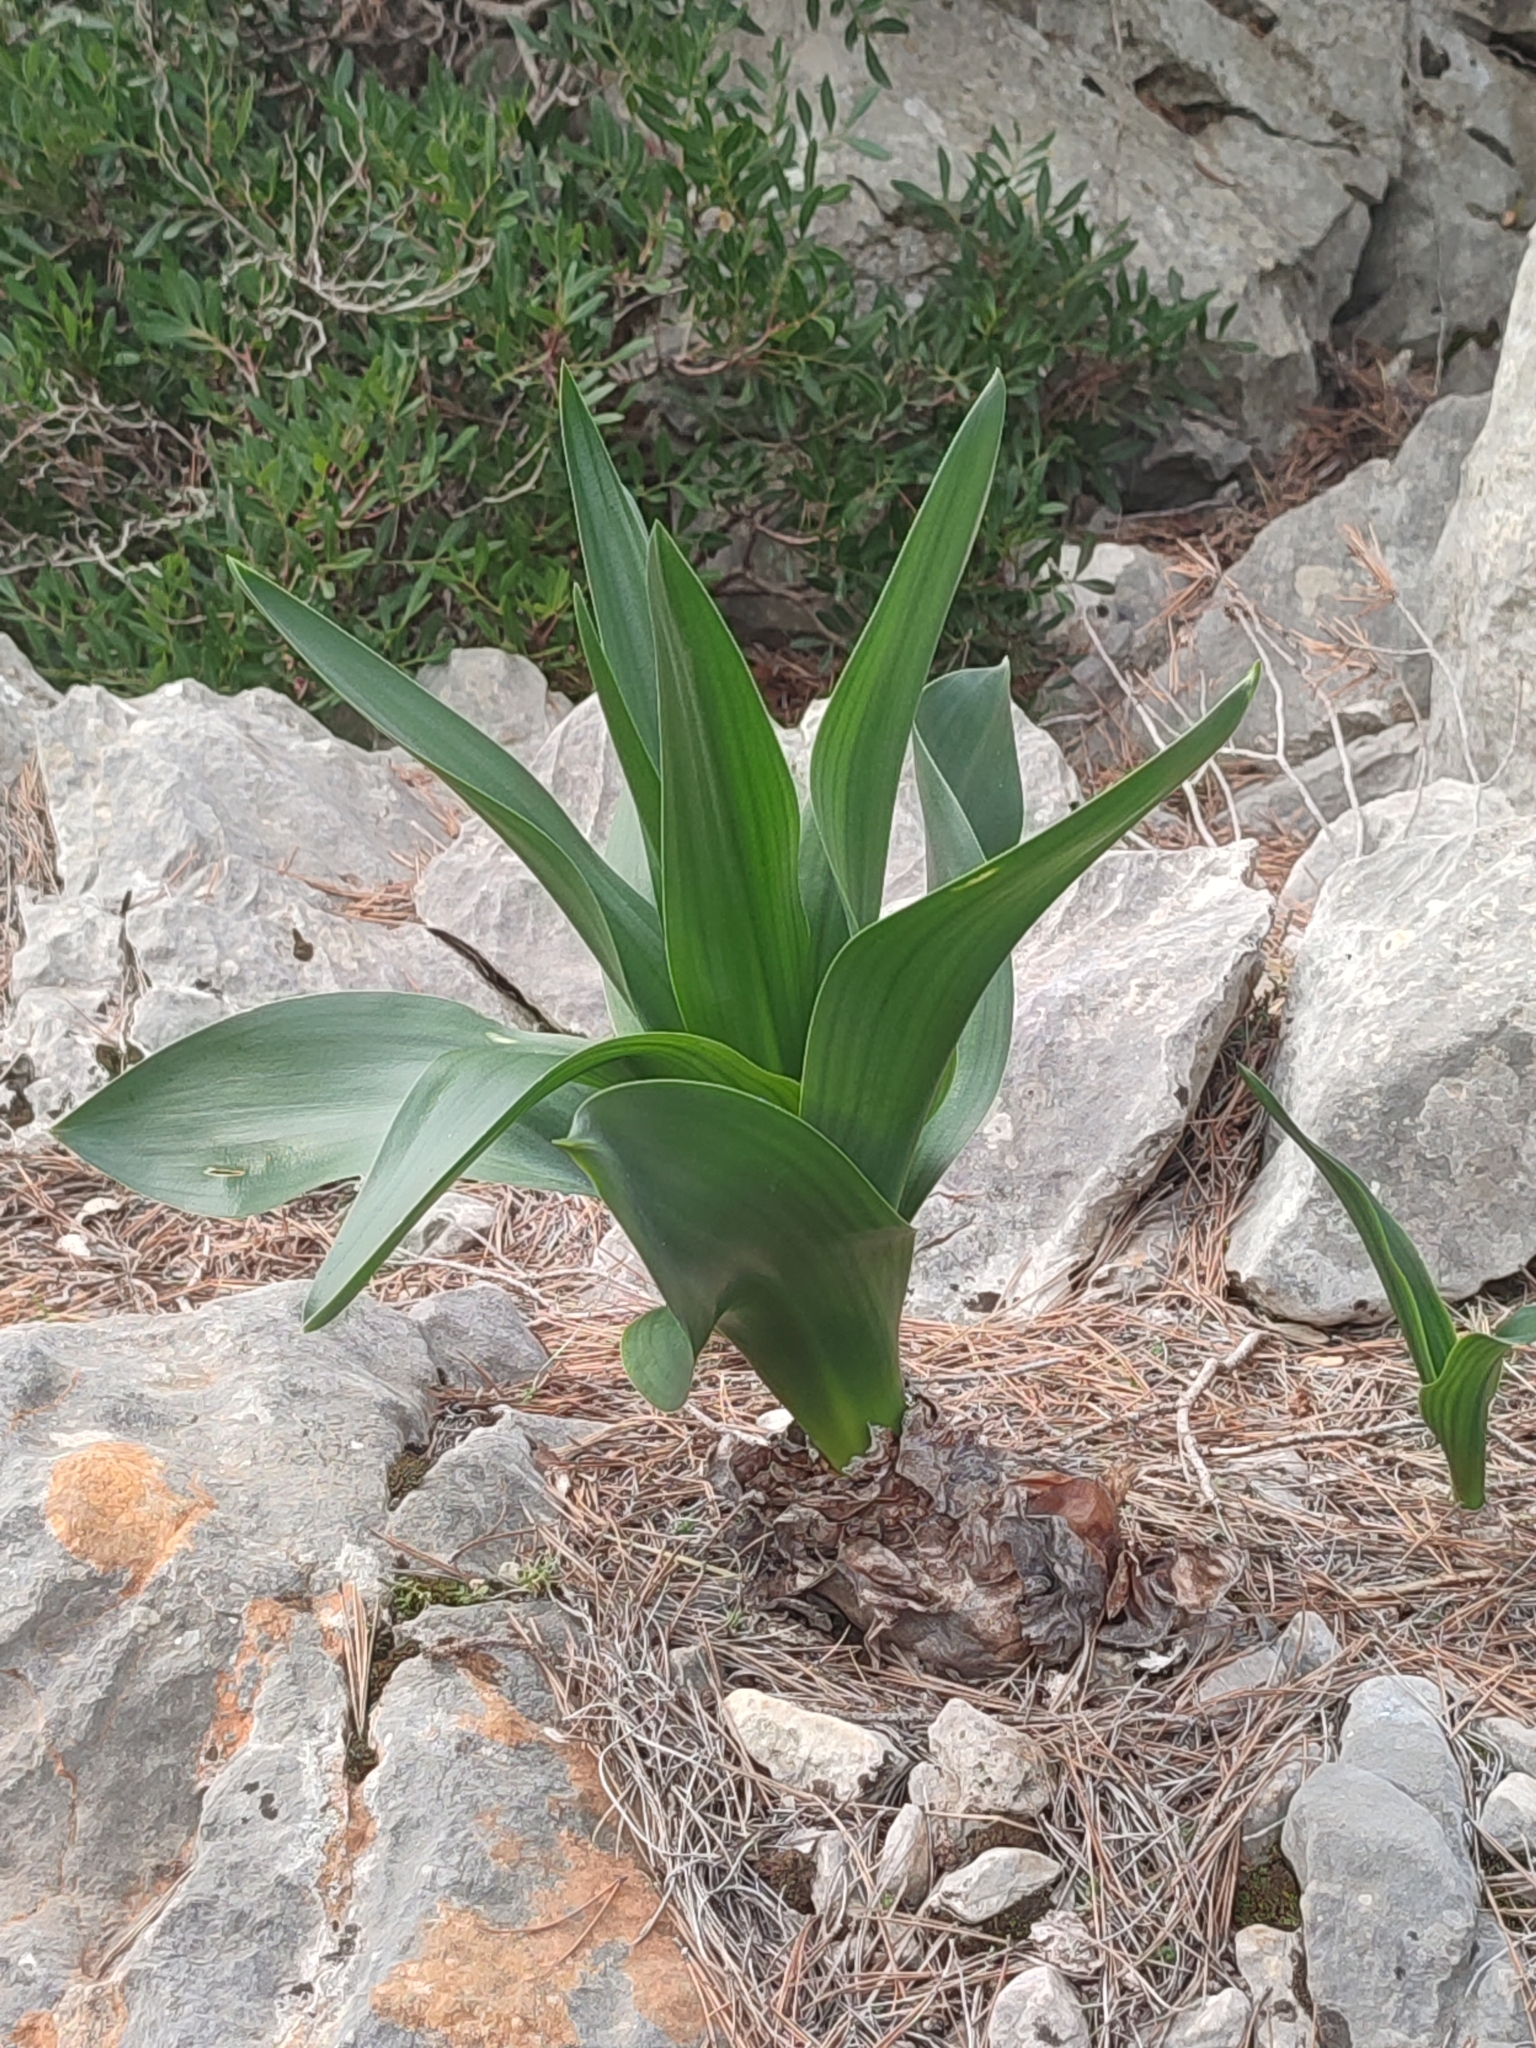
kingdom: Plantae
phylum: Tracheophyta
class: Liliopsida
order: Asparagales
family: Asparagaceae
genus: Drimia
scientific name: Drimia maritima
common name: Maritime squill
